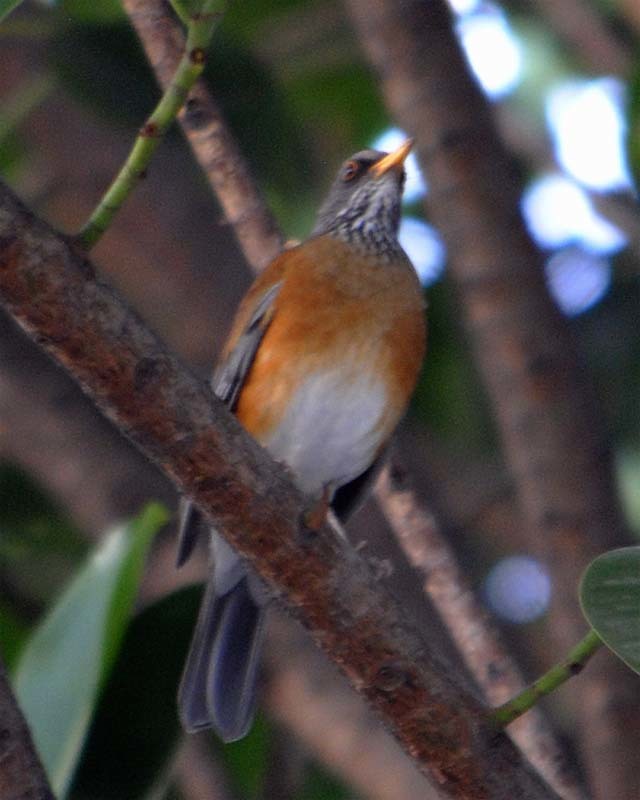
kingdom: Animalia
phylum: Chordata
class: Aves
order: Passeriformes
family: Turdidae
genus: Turdus
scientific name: Turdus rufopalliatus
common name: Rufous-backed robin
